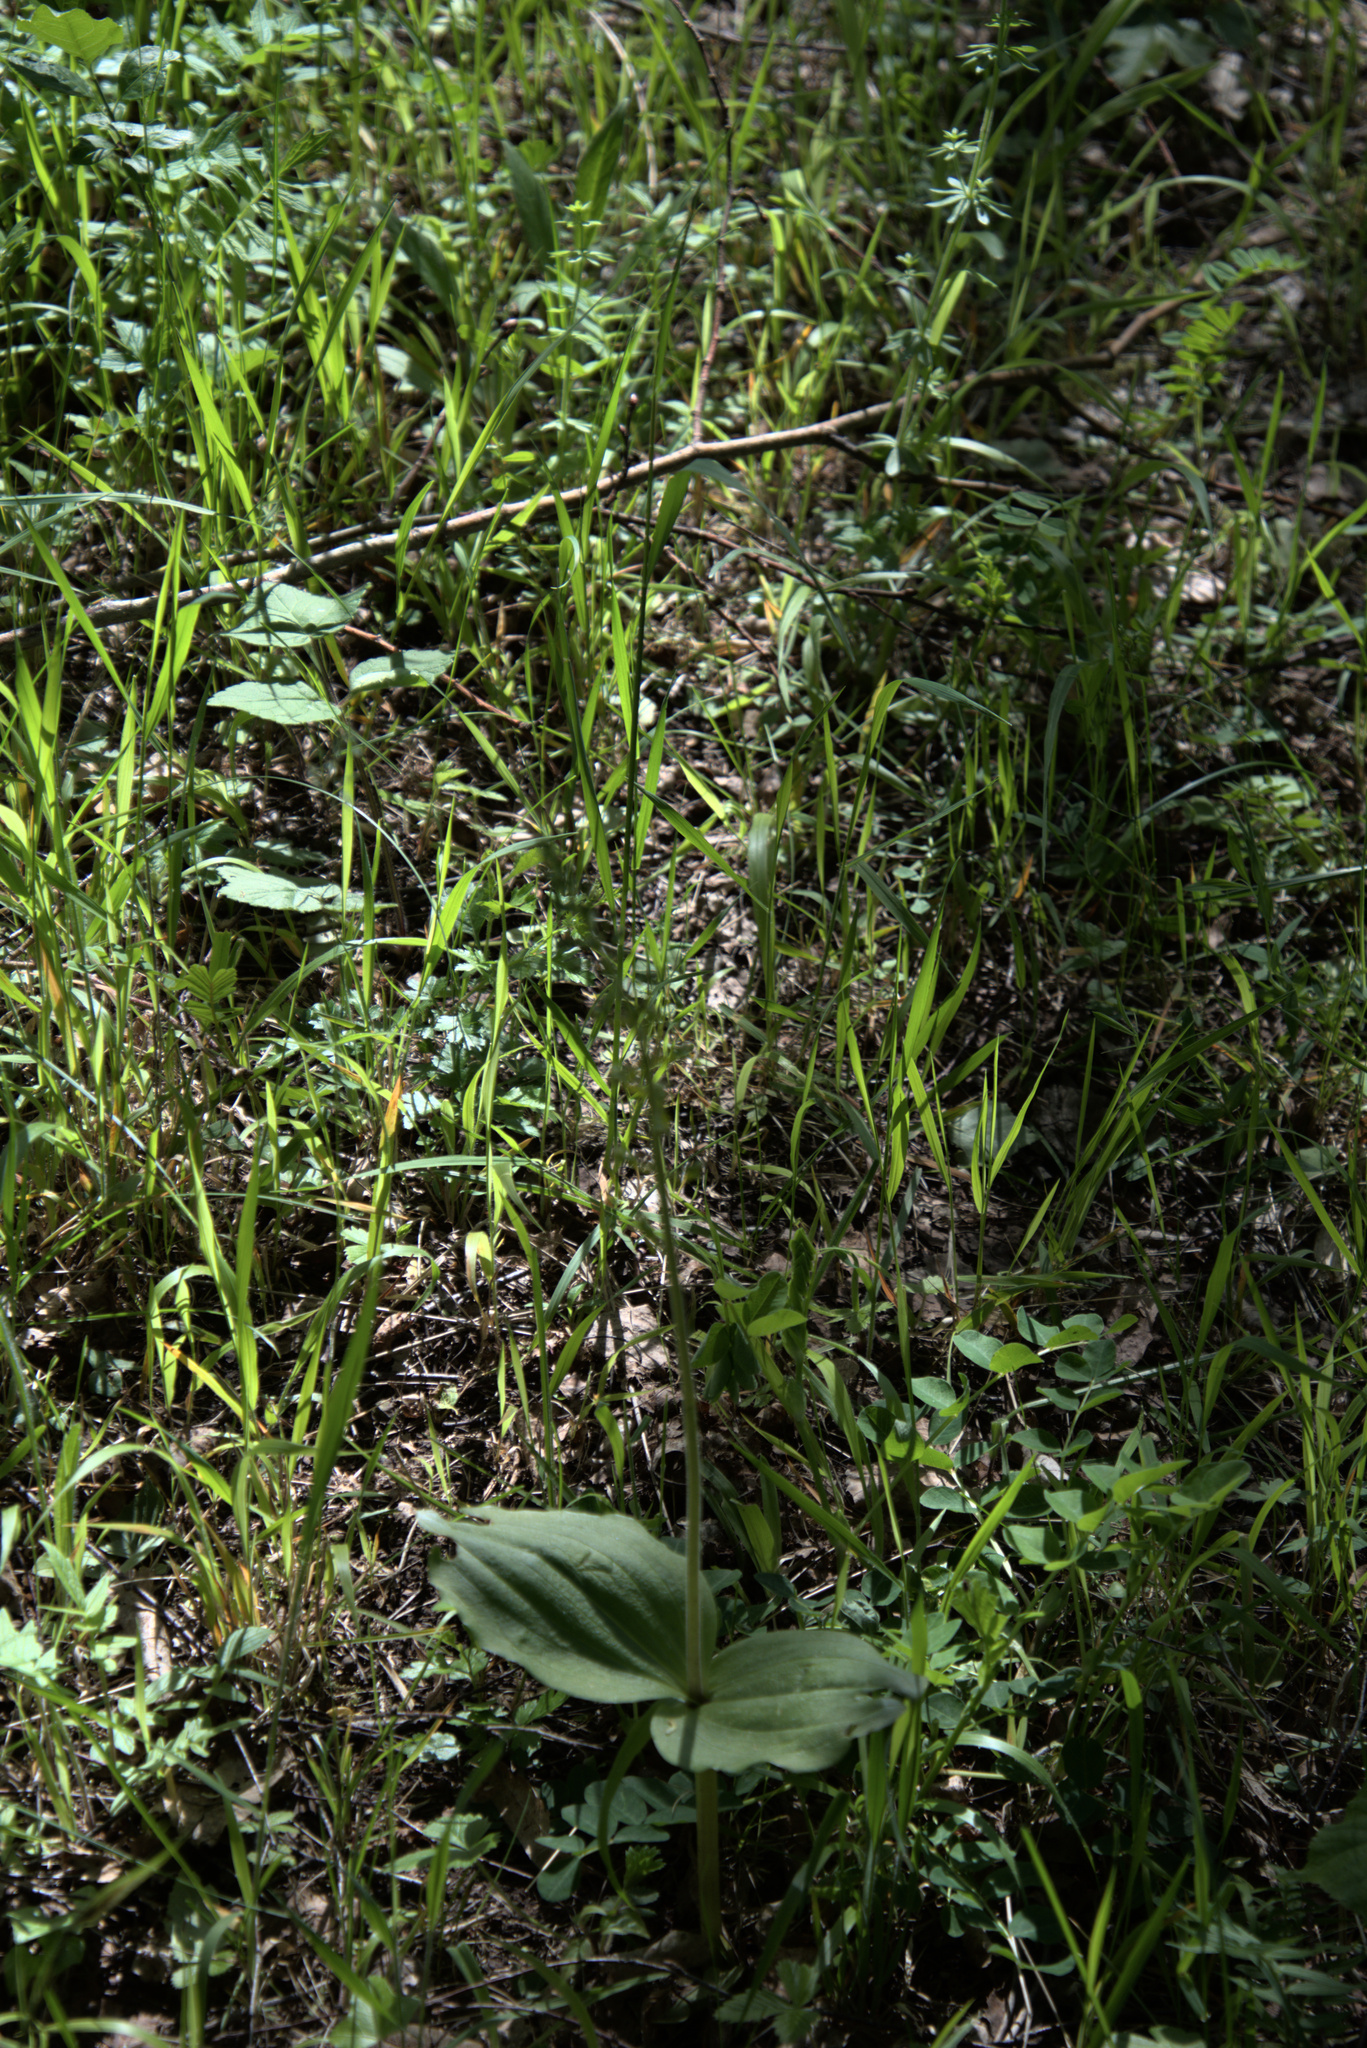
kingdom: Plantae
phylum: Tracheophyta
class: Liliopsida
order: Asparagales
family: Orchidaceae
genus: Neottia
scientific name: Neottia ovata
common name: Common twayblade
